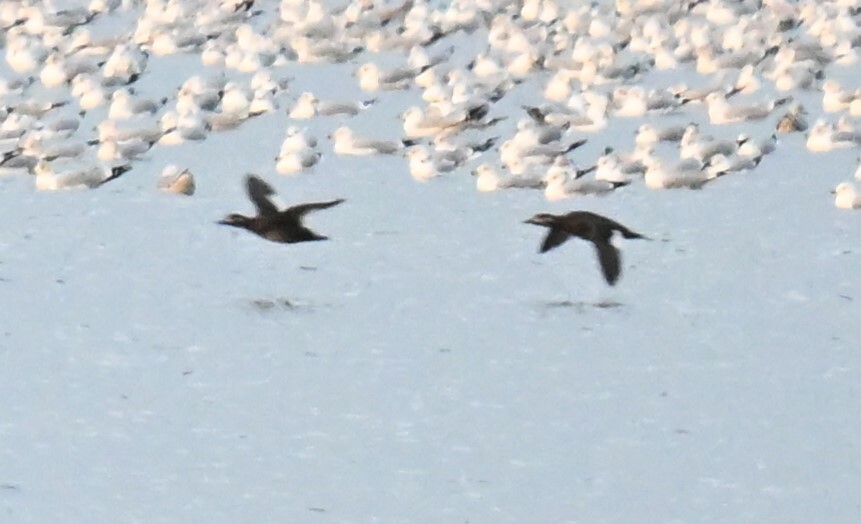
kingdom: Animalia
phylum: Chordata
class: Aves
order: Anseriformes
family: Anatidae
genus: Melanitta
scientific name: Melanitta deglandi
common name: White-winged scoter
